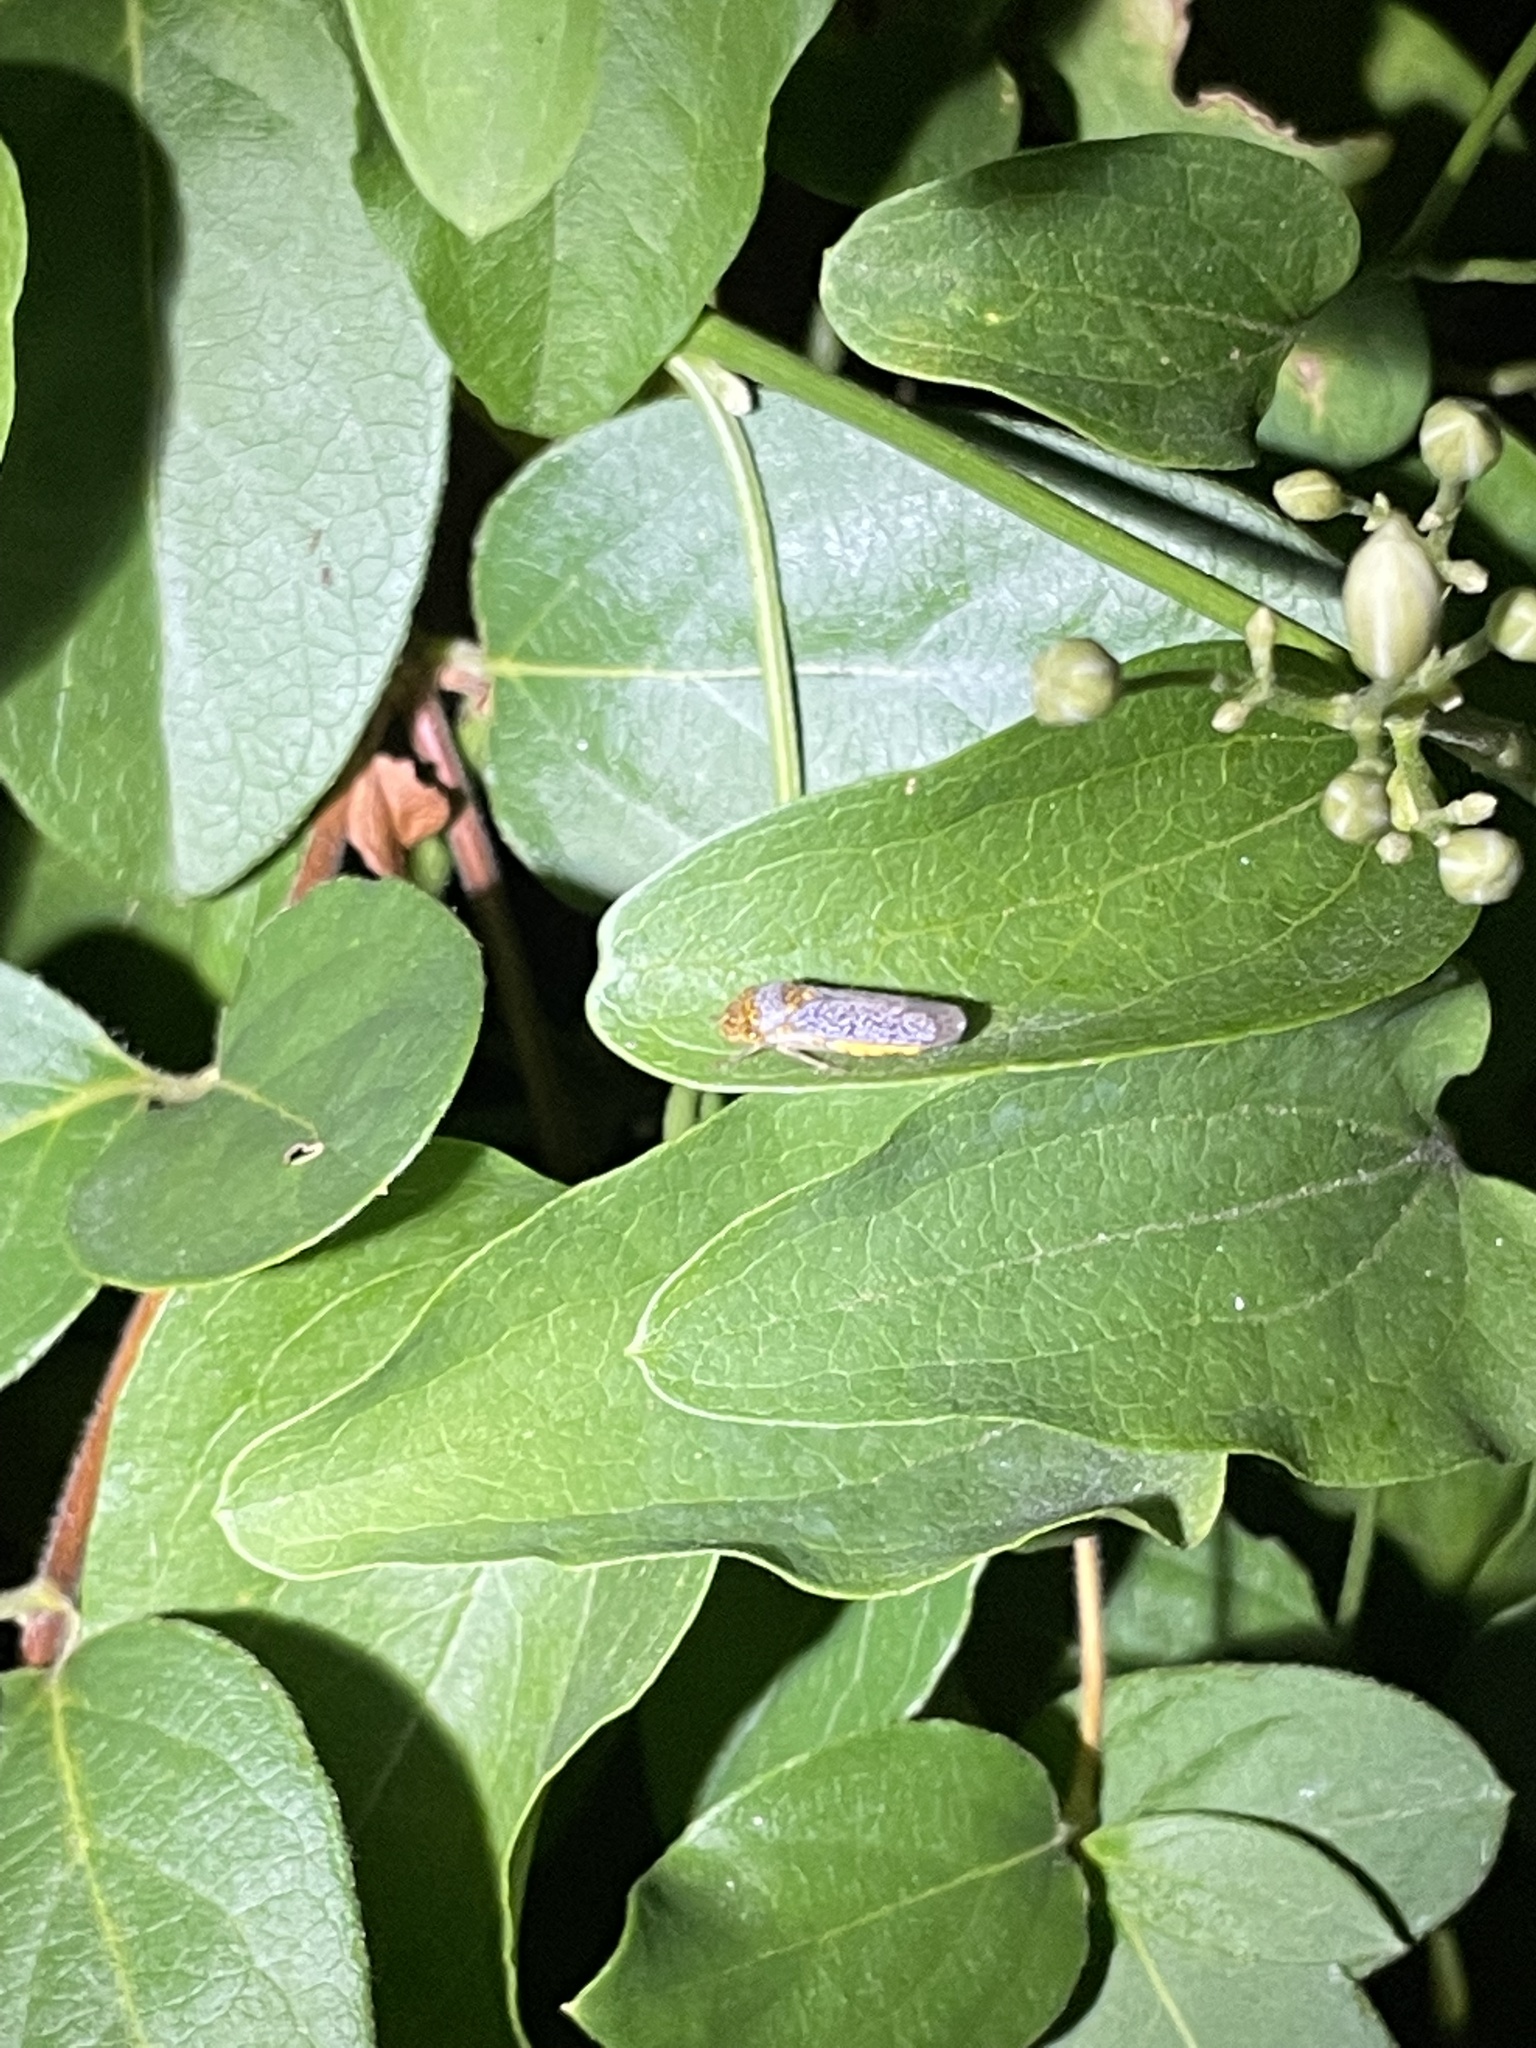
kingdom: Animalia
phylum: Arthropoda
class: Insecta
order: Hemiptera
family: Cicadellidae
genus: Oncometopia
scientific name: Oncometopia orbona
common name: Broad-headed sharpshooter
